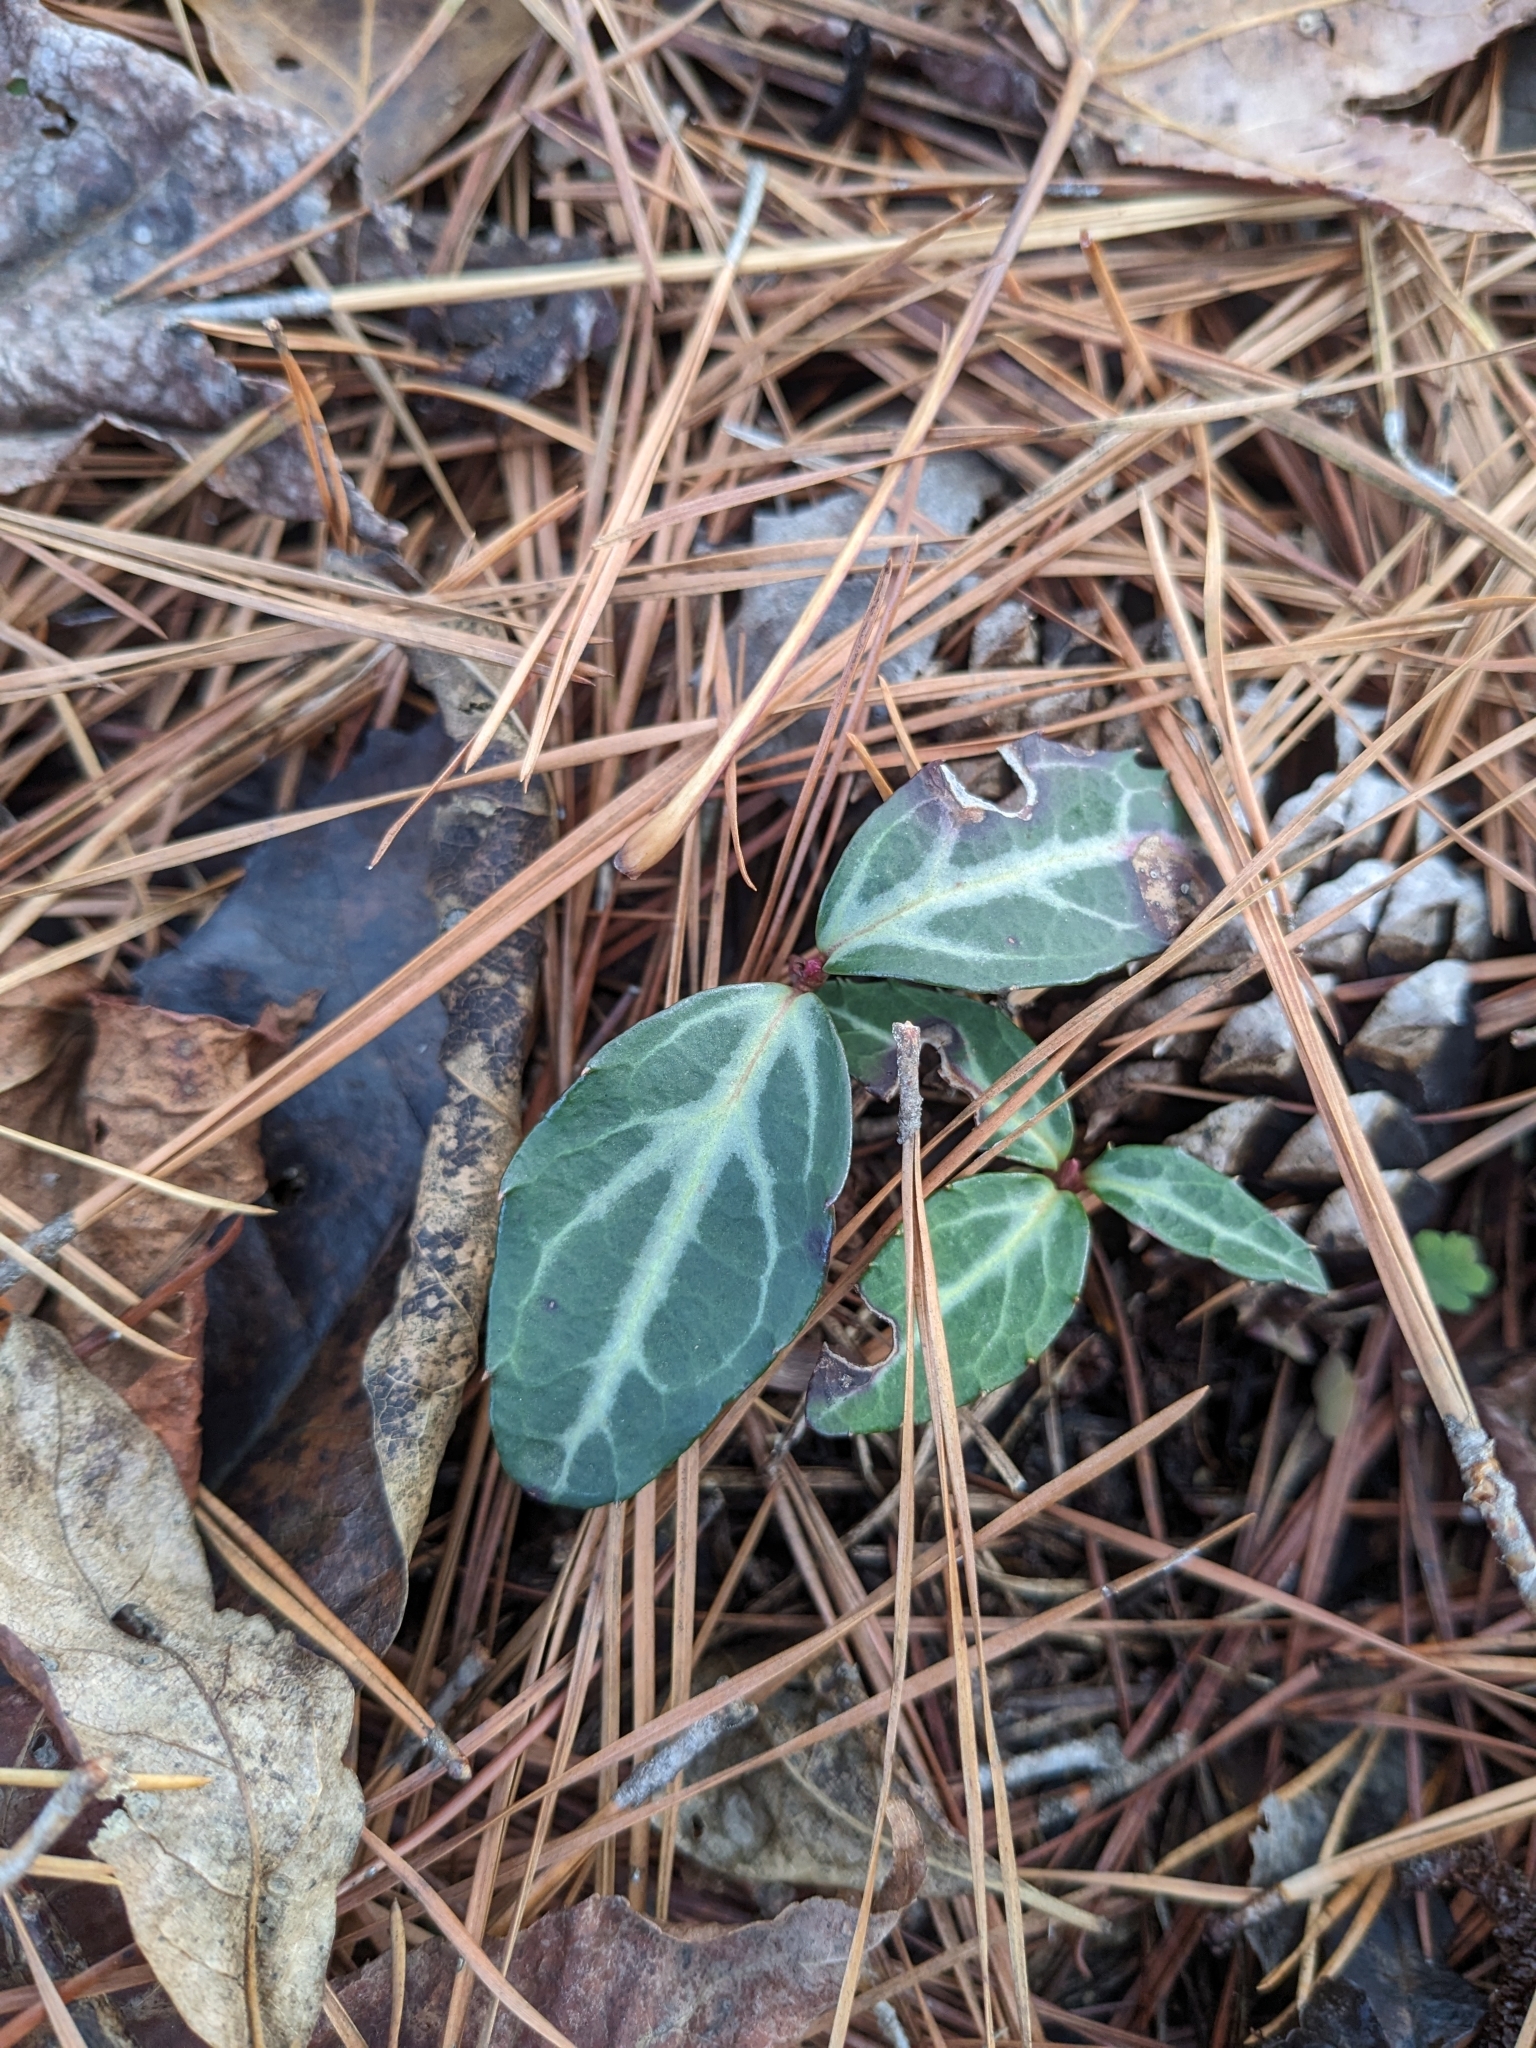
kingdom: Plantae
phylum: Tracheophyta
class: Magnoliopsida
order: Ericales
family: Ericaceae
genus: Chimaphila
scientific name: Chimaphila maculata
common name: Spotted pipsissewa
